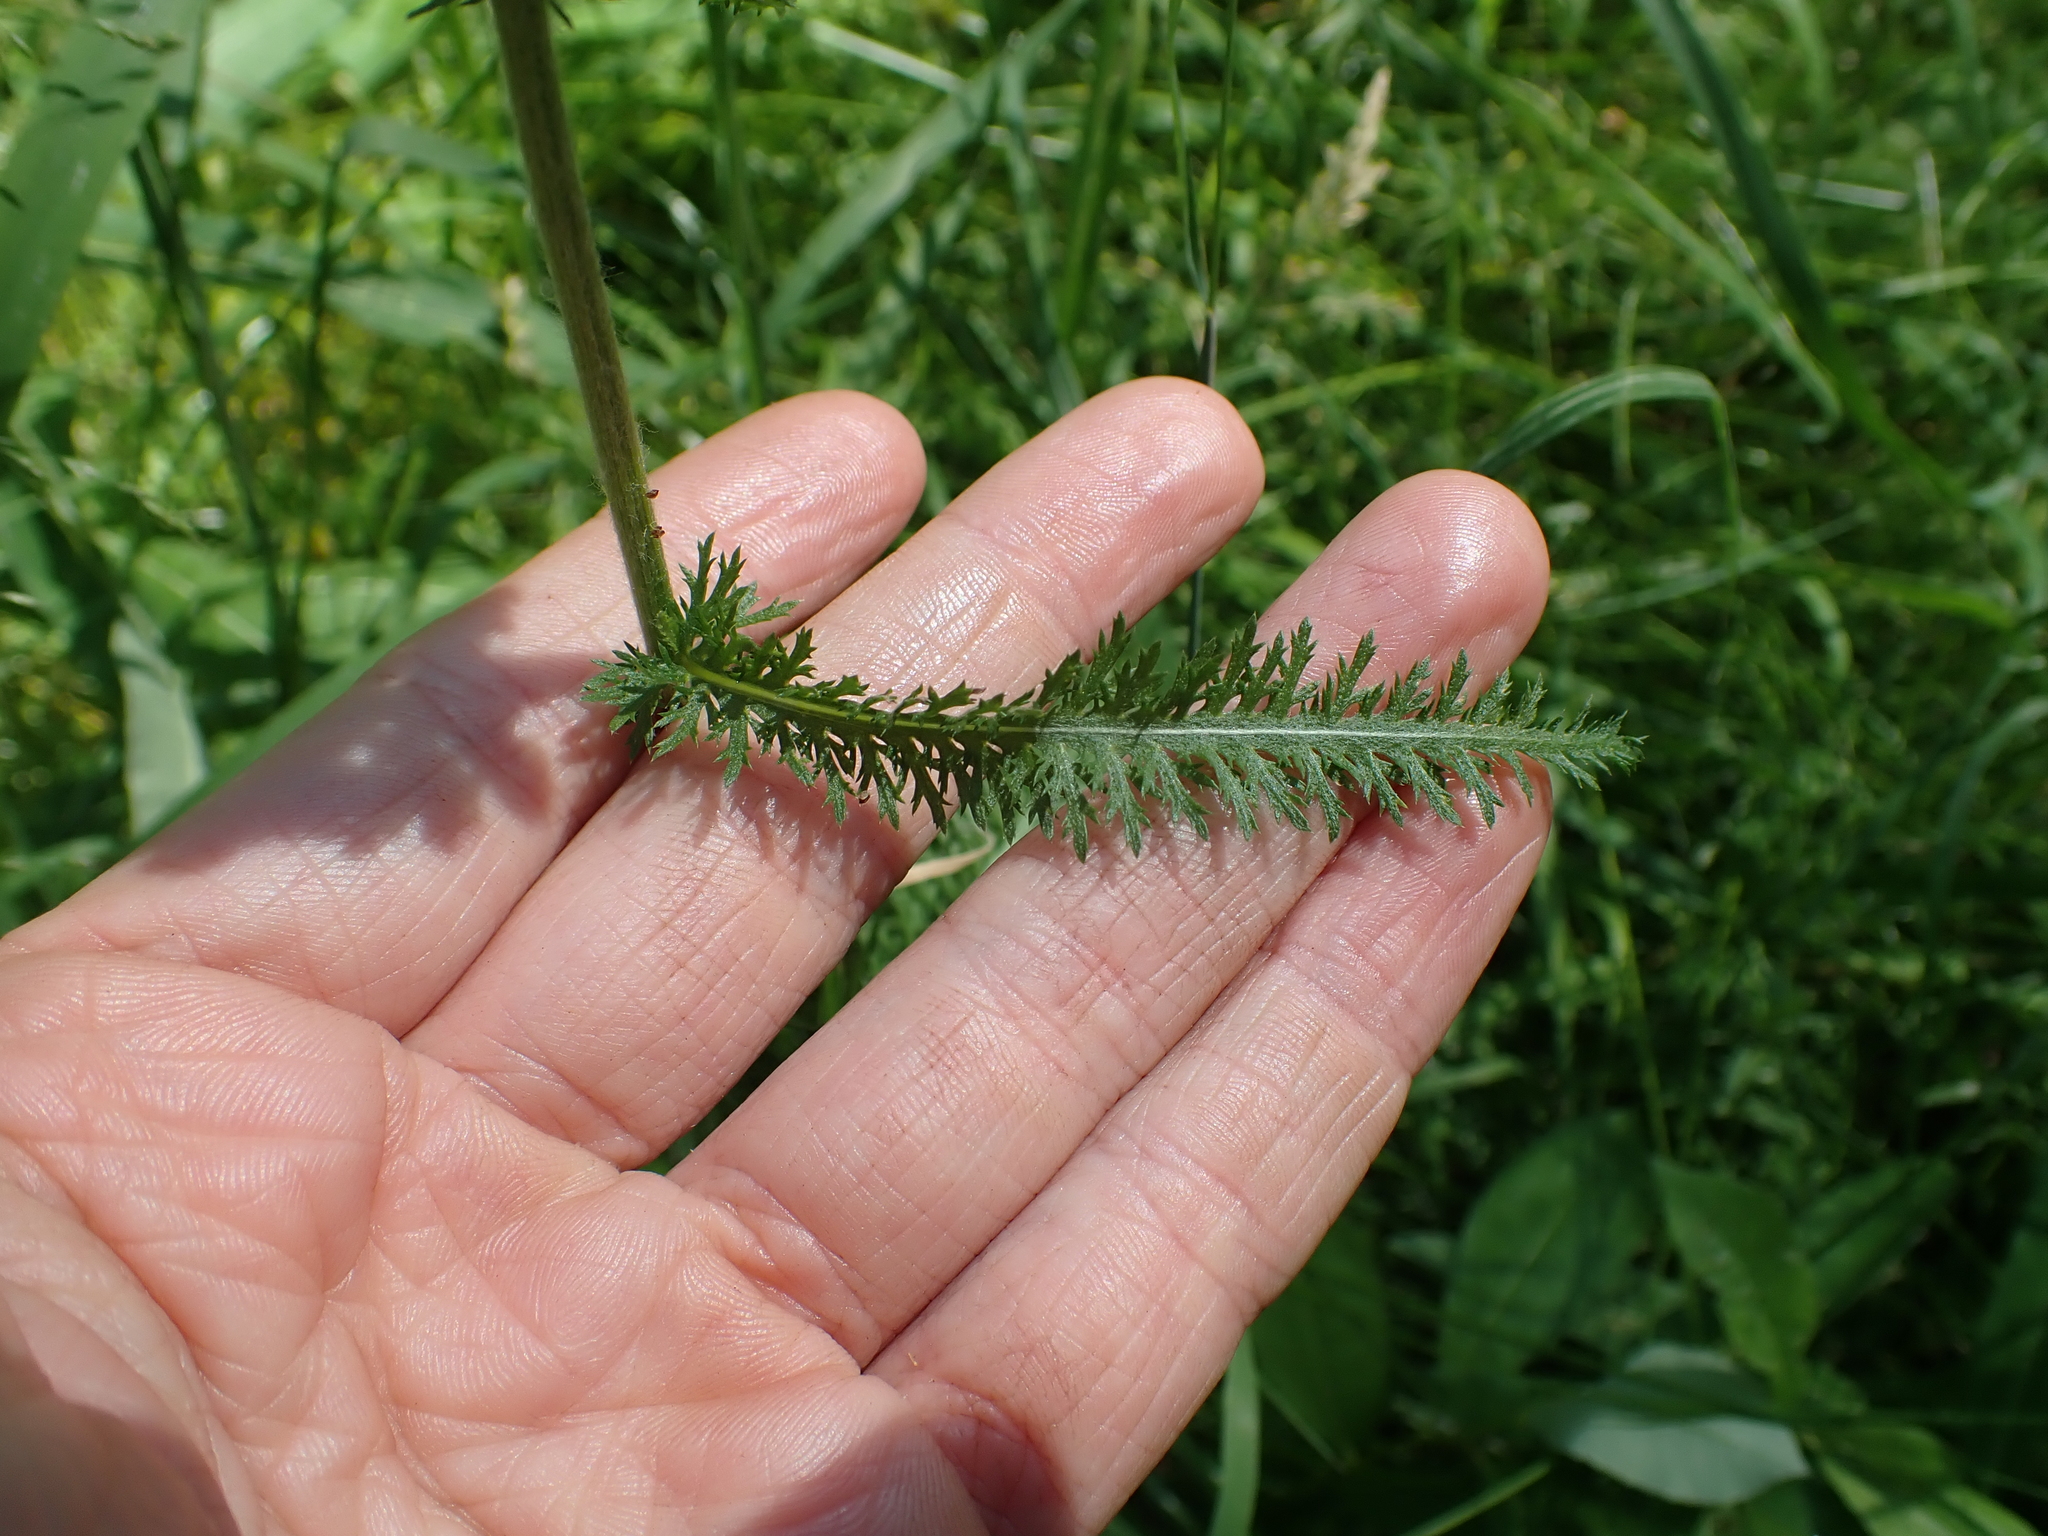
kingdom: Plantae
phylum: Tracheophyta
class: Magnoliopsida
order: Asterales
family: Asteraceae
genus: Achillea
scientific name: Achillea millefolium
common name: Yarrow
